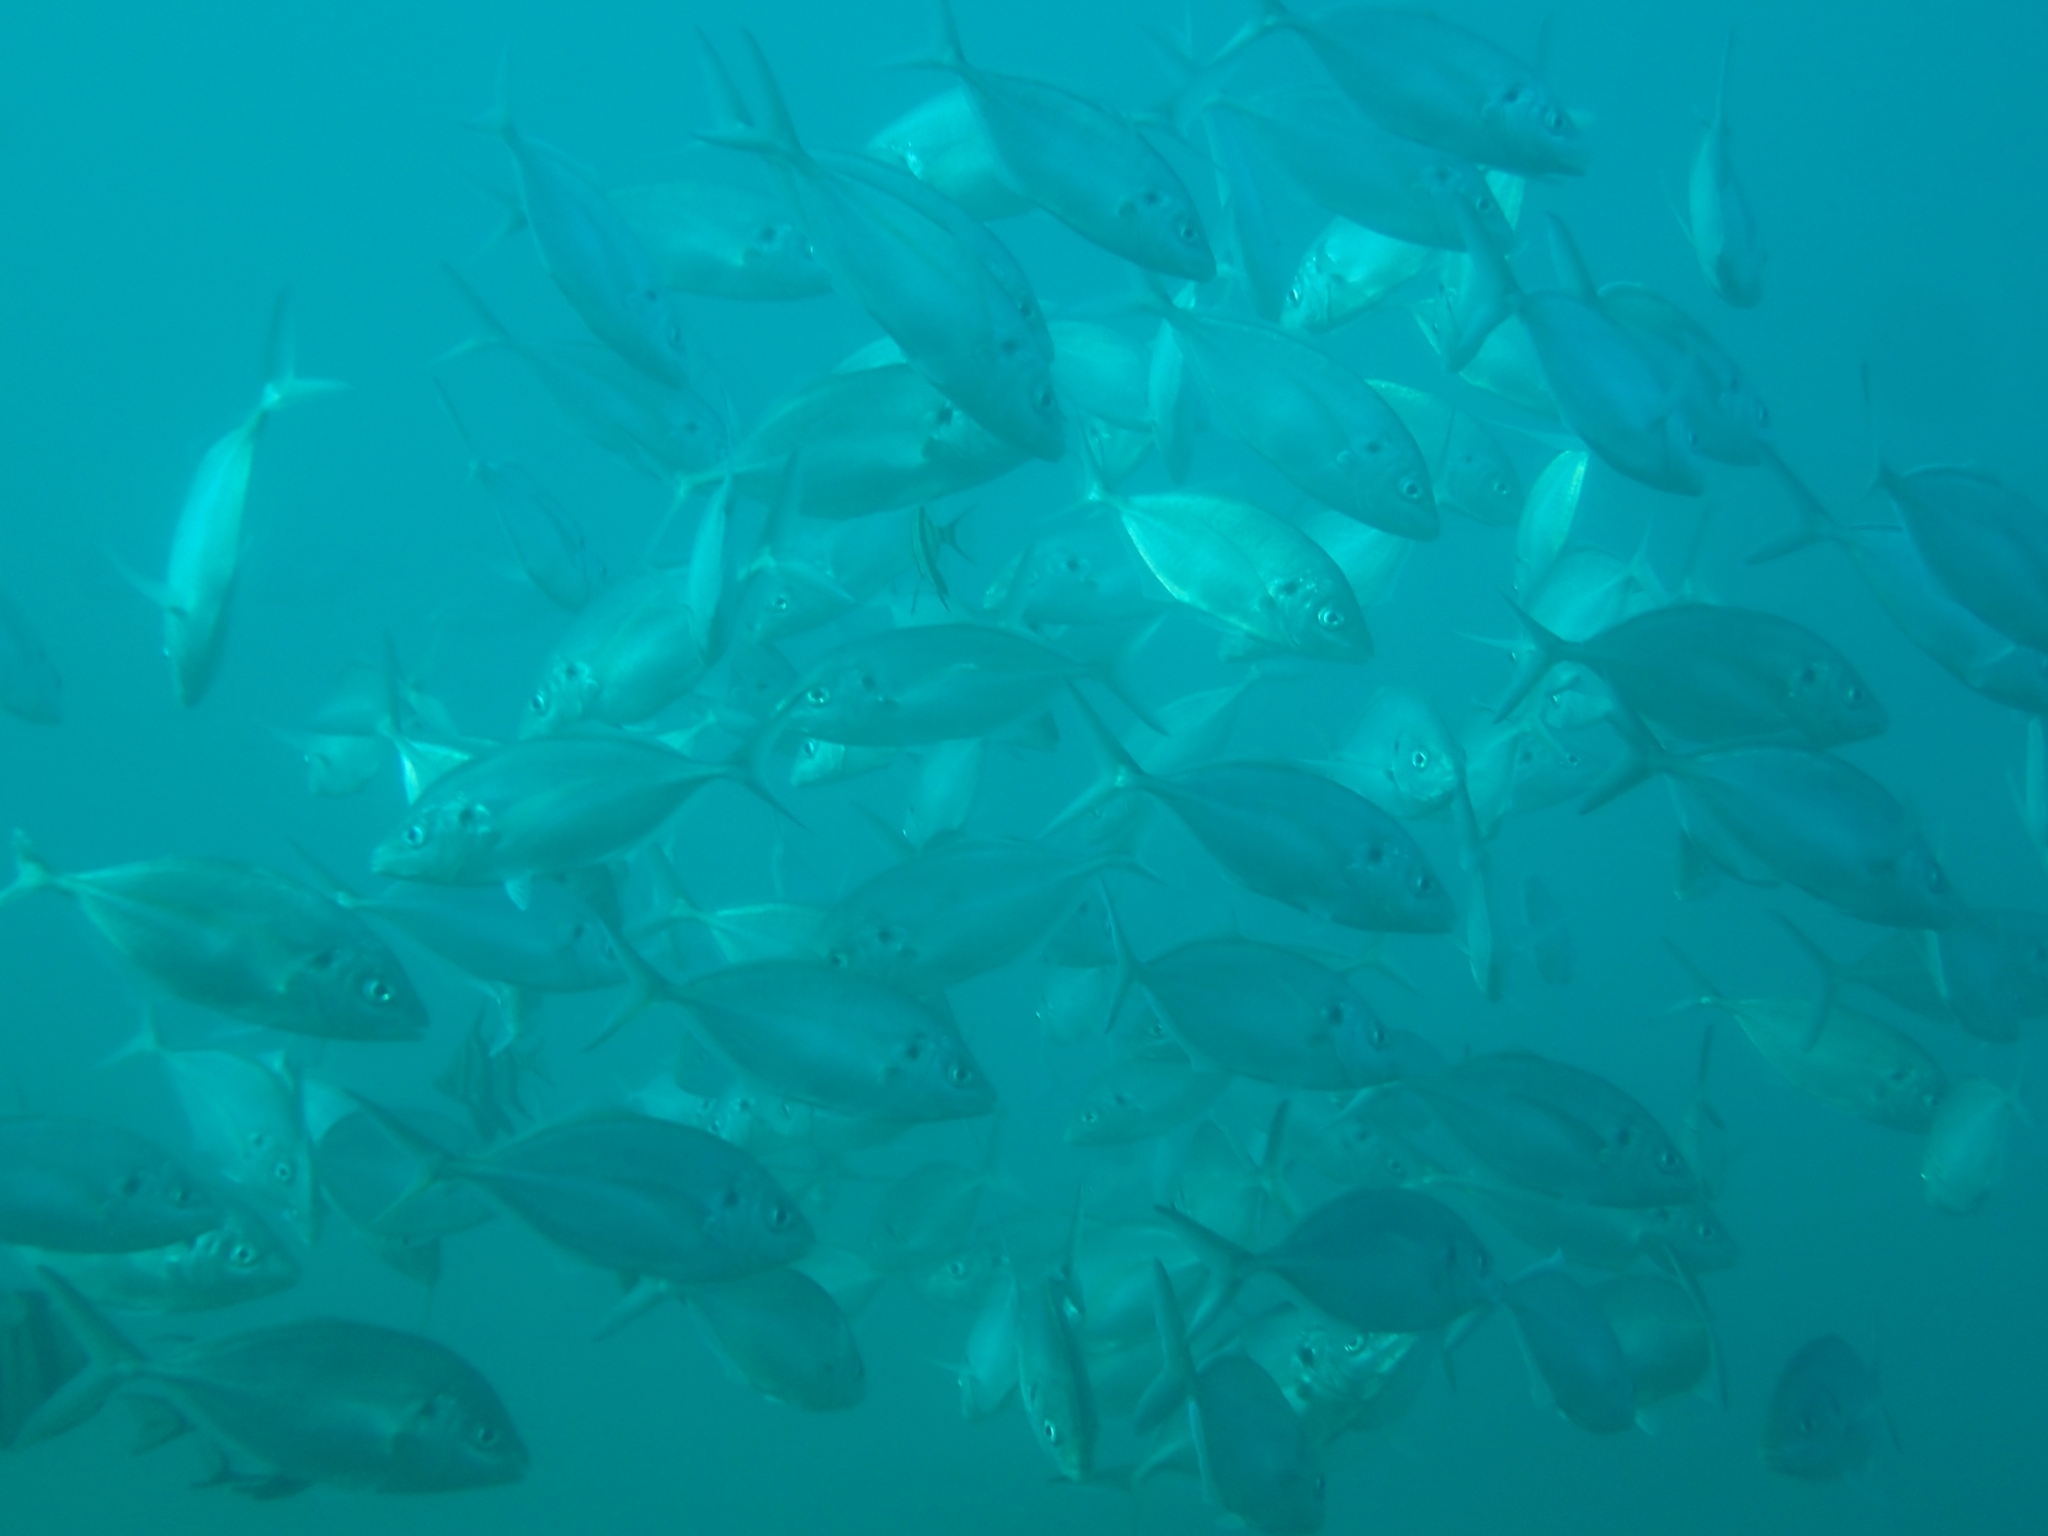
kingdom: Animalia
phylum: Chordata
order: Perciformes
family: Carangidae
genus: Pseudocaranx
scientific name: Pseudocaranx dentex
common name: White trevally
